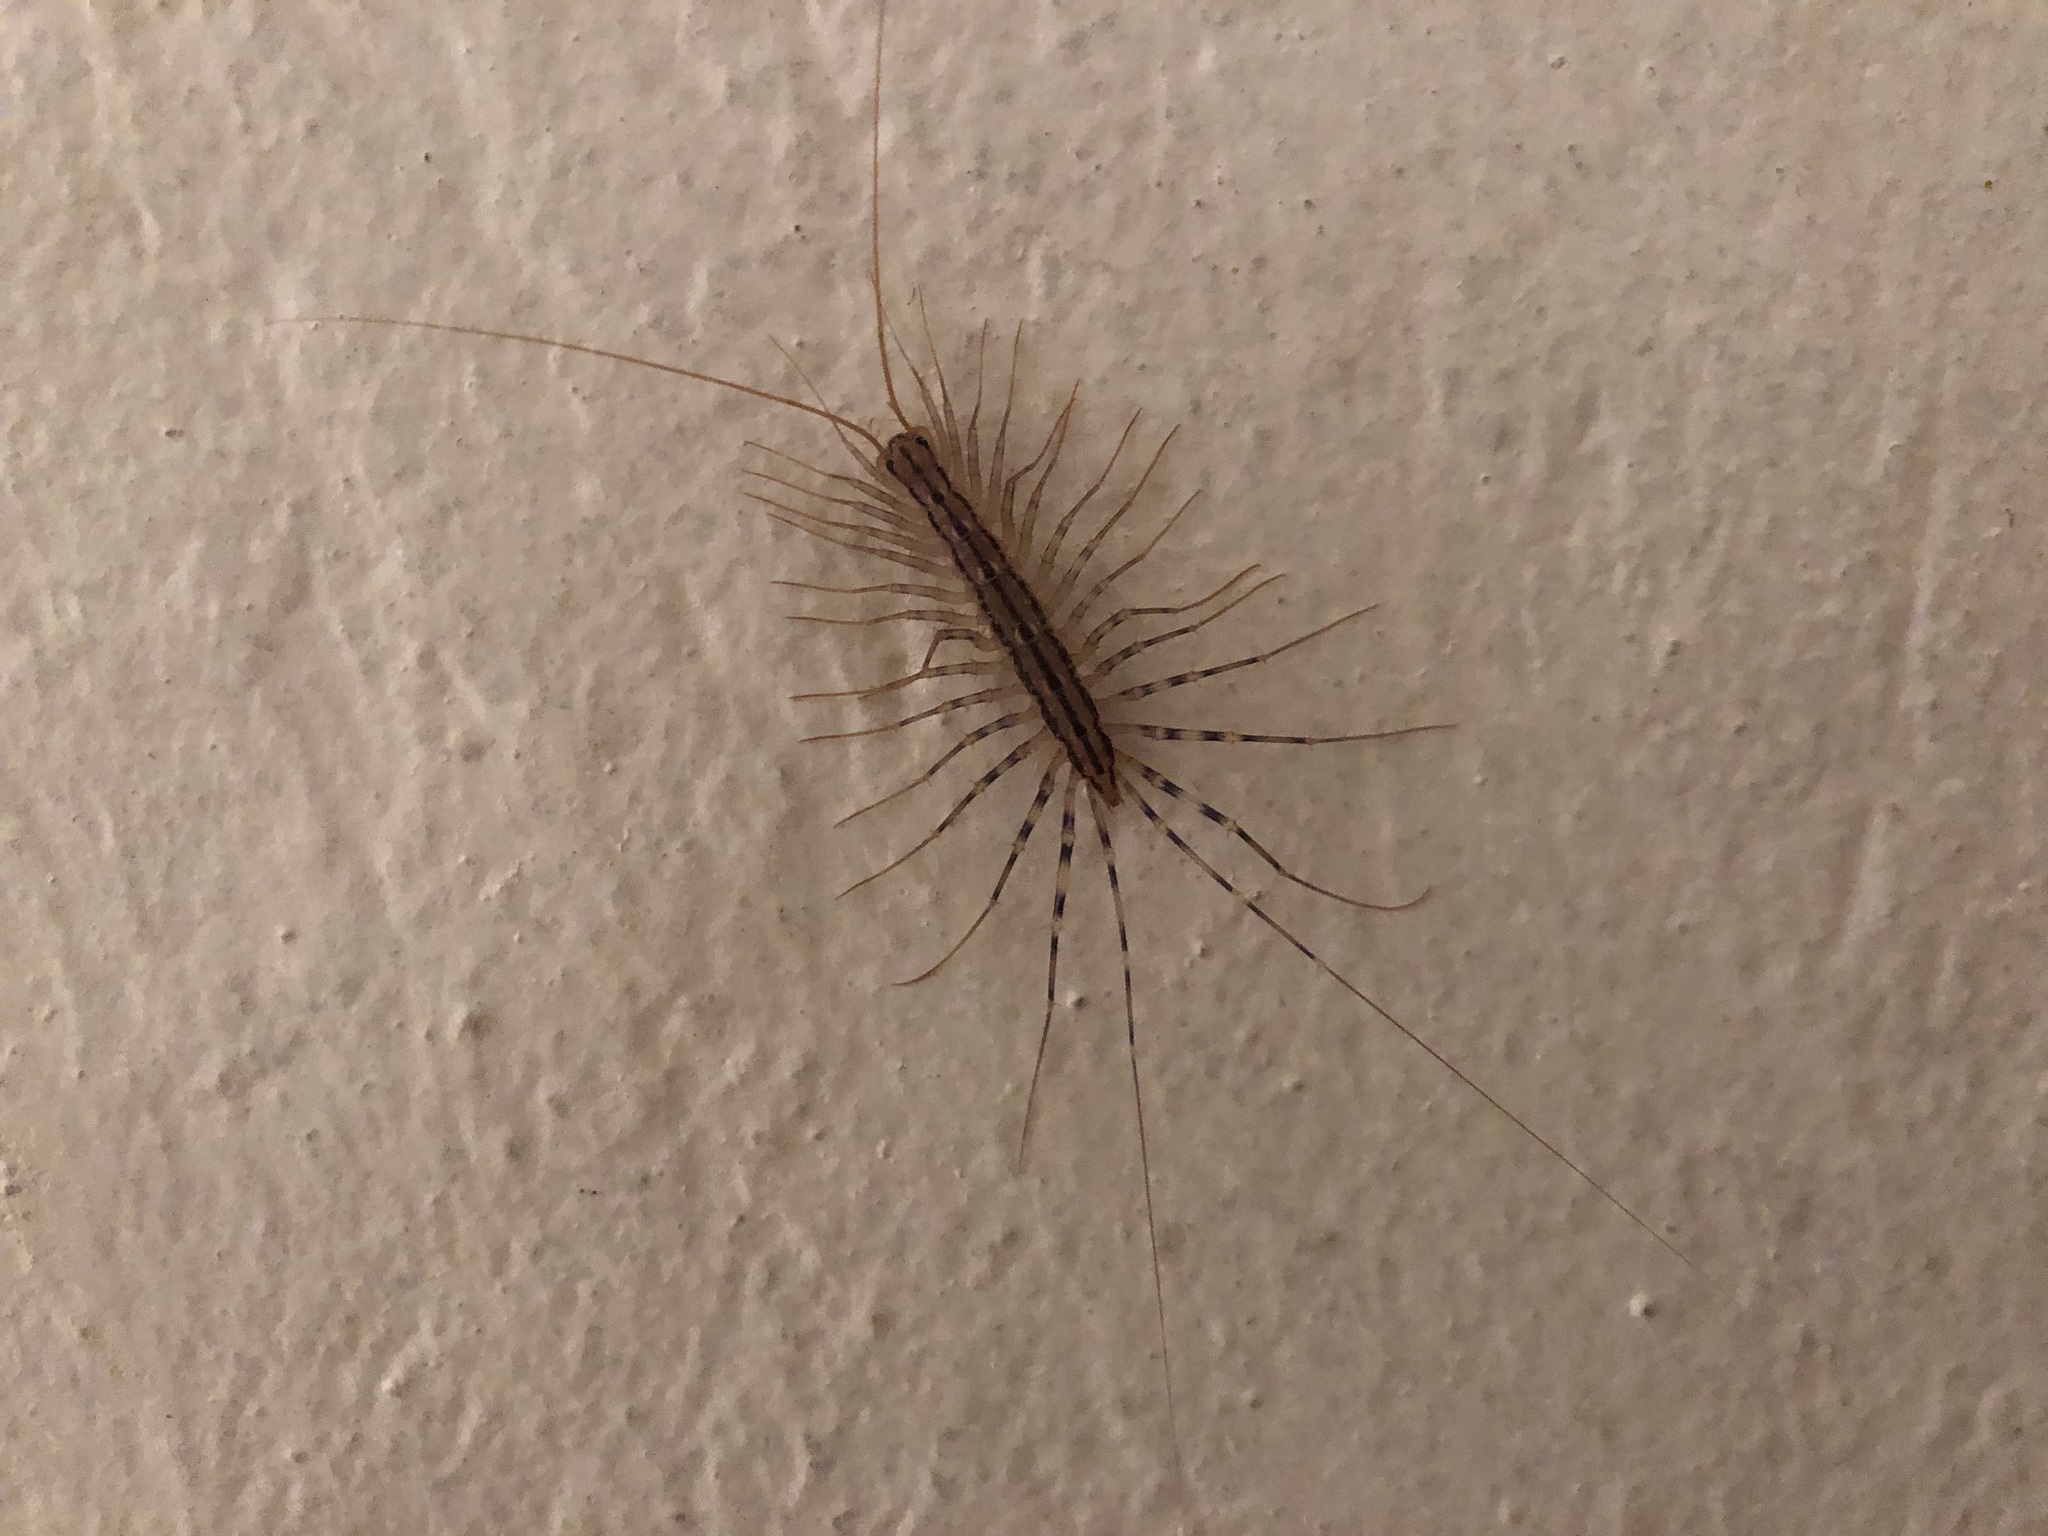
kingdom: Animalia
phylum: Arthropoda
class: Chilopoda
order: Scutigeromorpha
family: Scutigeridae
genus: Scutigera
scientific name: Scutigera coleoptrata
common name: House centipede
